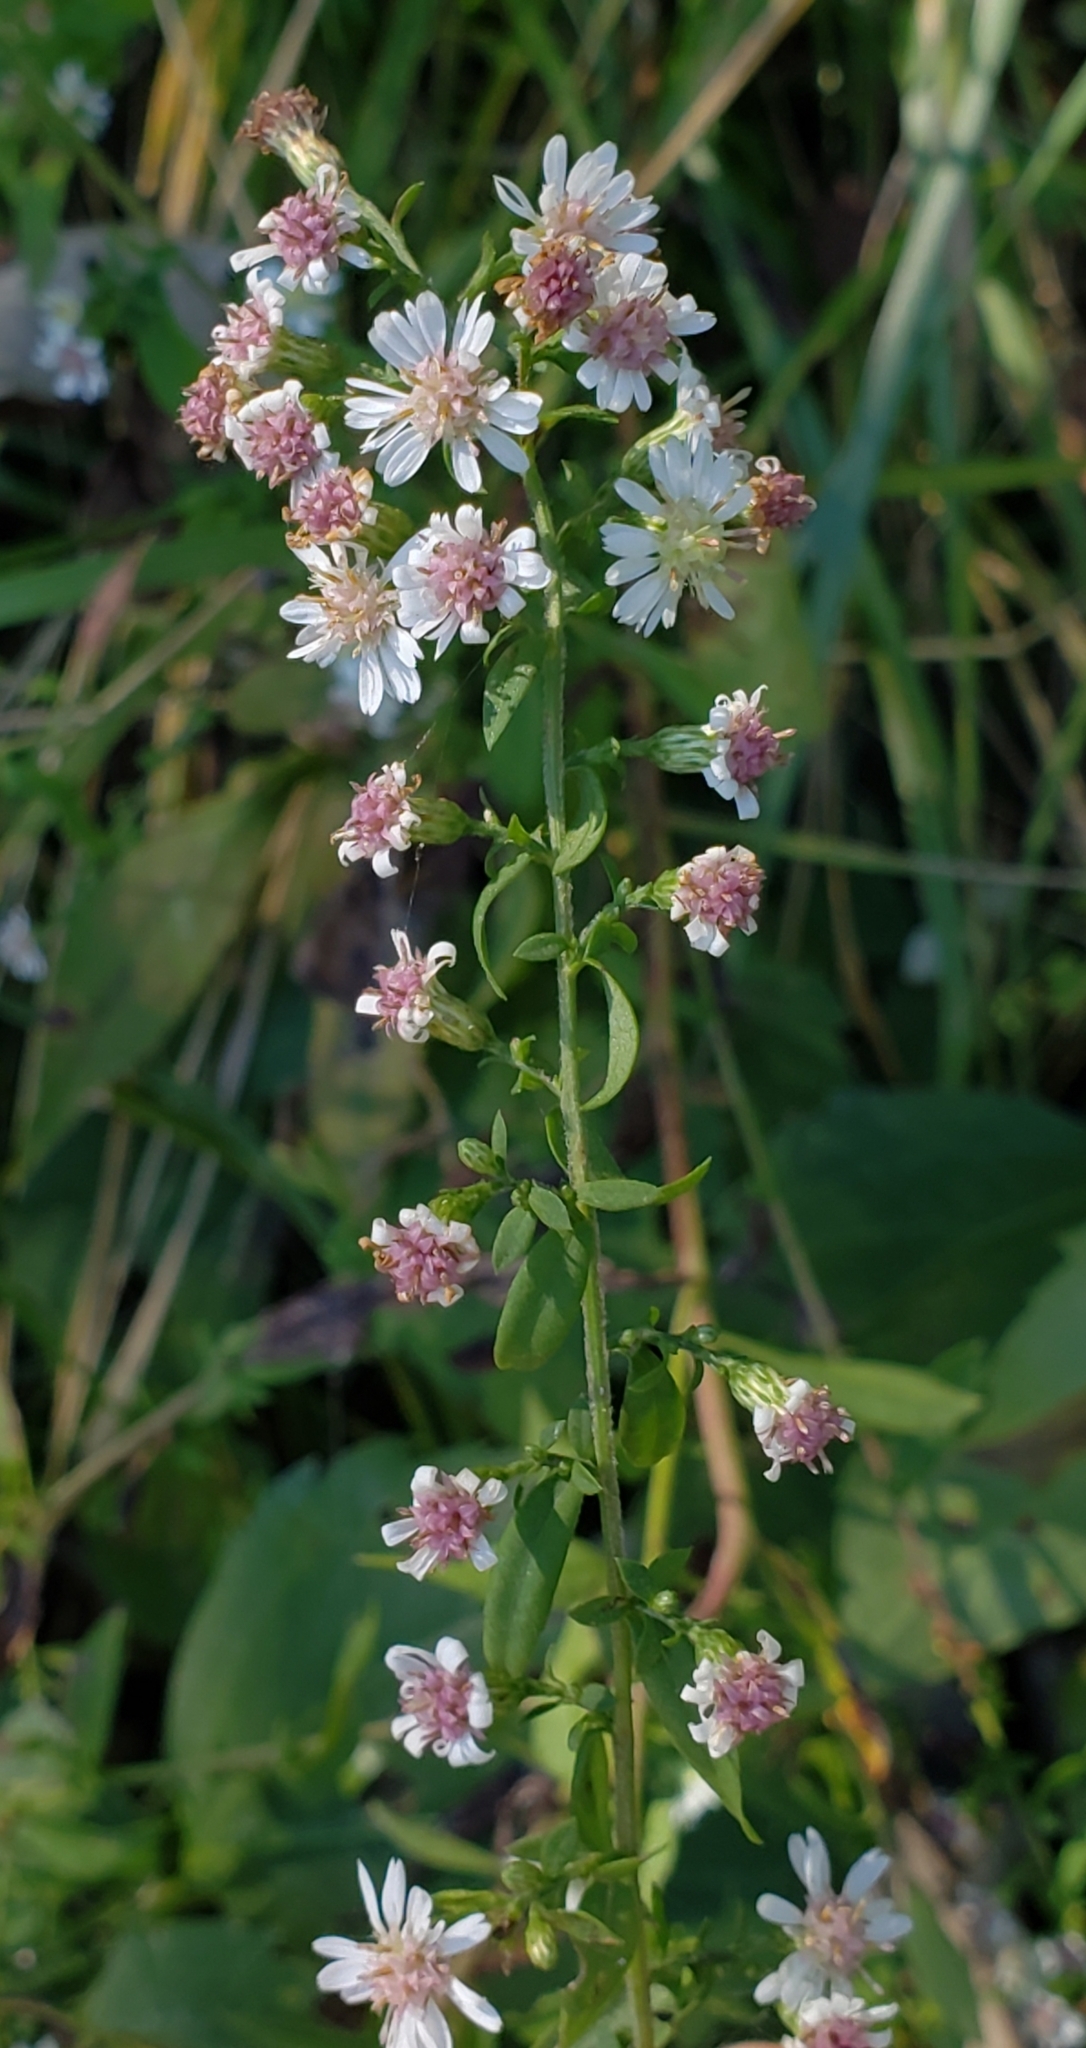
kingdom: Plantae
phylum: Tracheophyta
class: Magnoliopsida
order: Asterales
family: Asteraceae
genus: Symphyotrichum
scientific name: Symphyotrichum lateriflorum
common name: Calico aster
